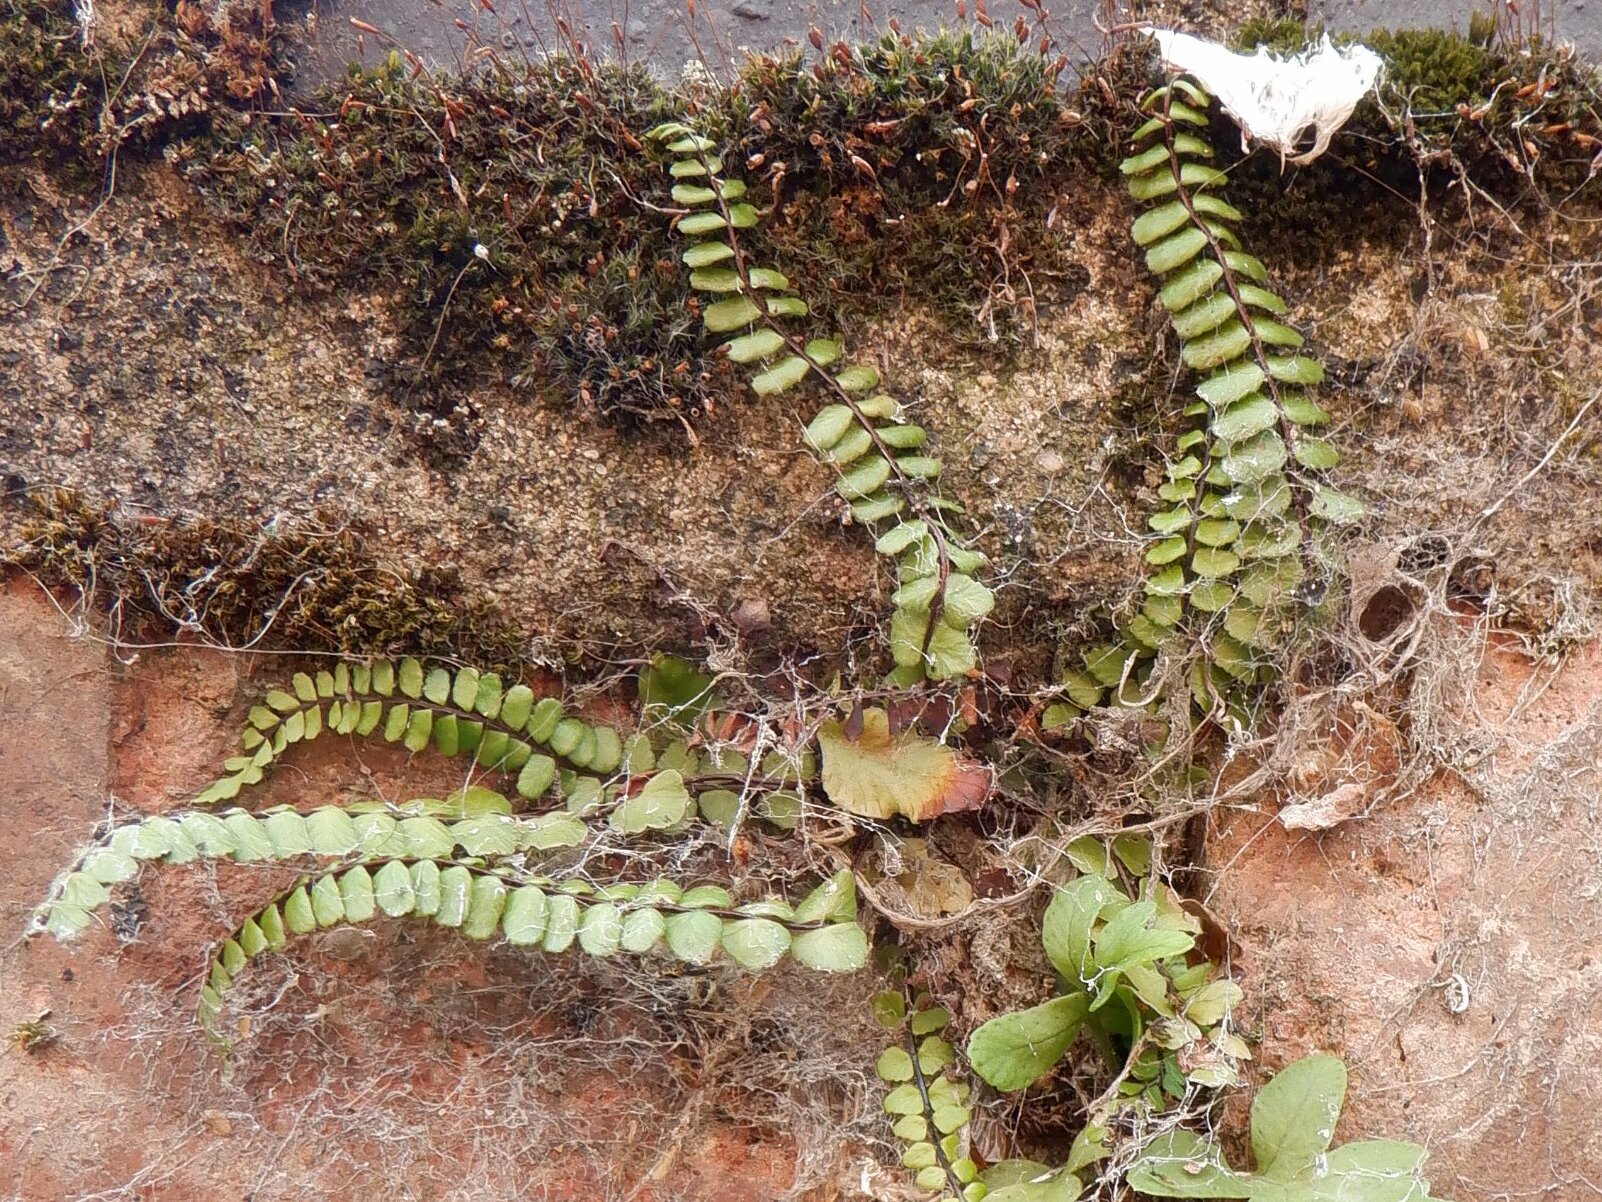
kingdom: Plantae
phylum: Tracheophyta
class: Polypodiopsida
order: Polypodiales
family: Aspleniaceae
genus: Asplenium
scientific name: Asplenium trichomanes
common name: Maidenhair spleenwort
